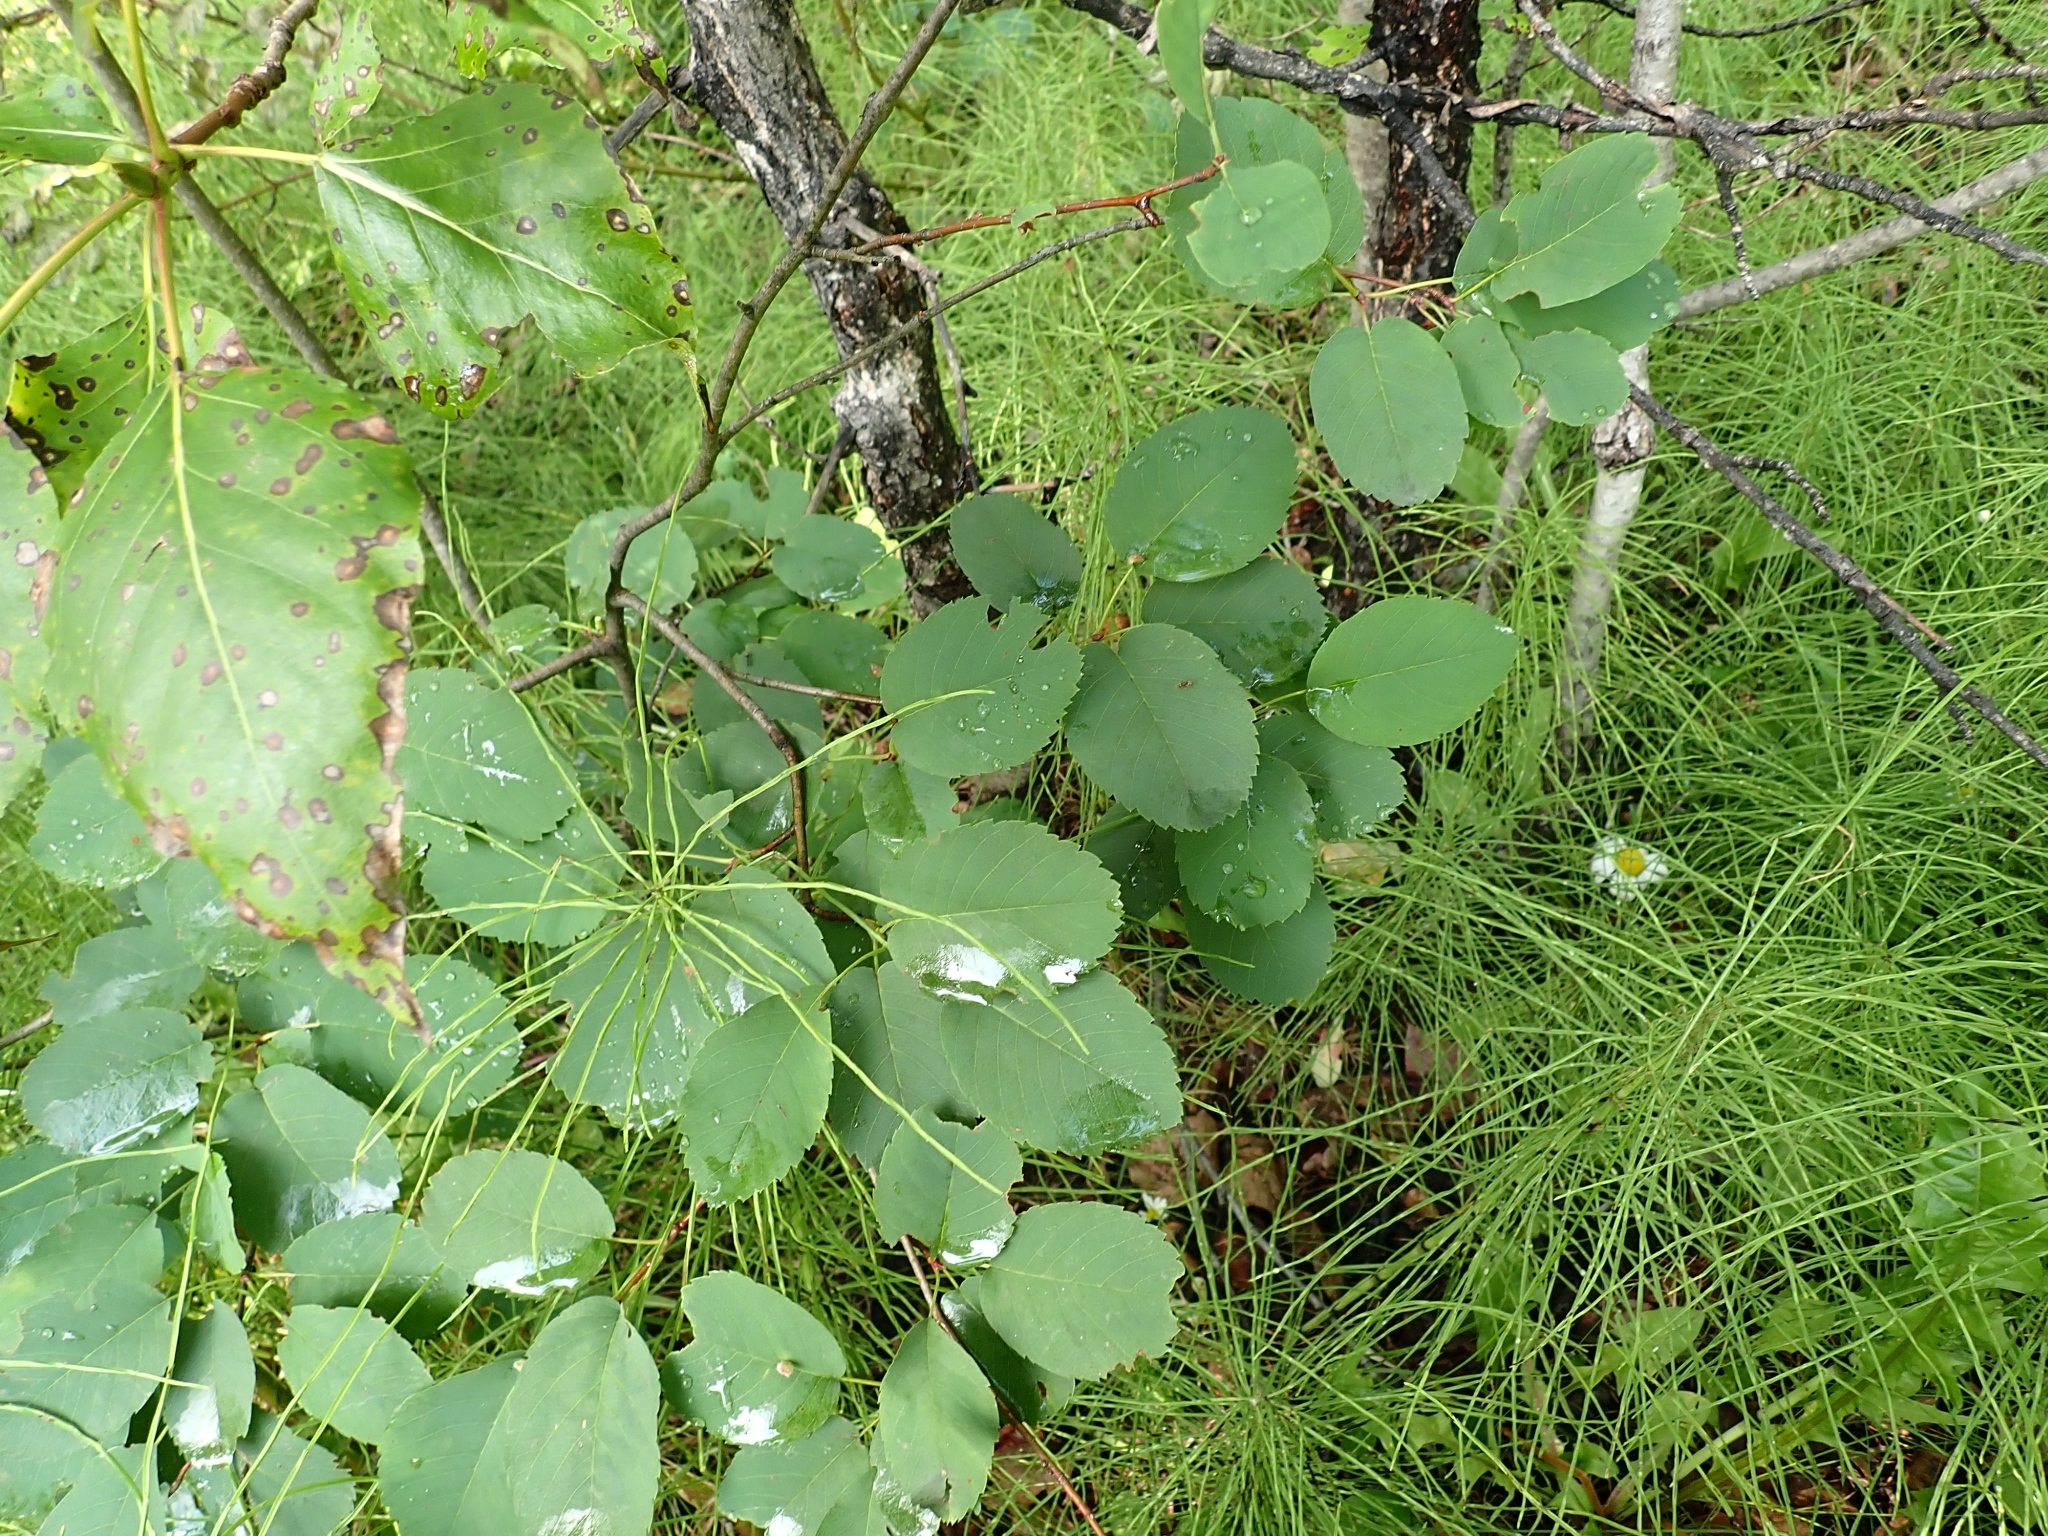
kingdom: Plantae
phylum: Tracheophyta
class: Magnoliopsida
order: Rosales
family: Rosaceae
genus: Amelanchier
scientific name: Amelanchier alnifolia
